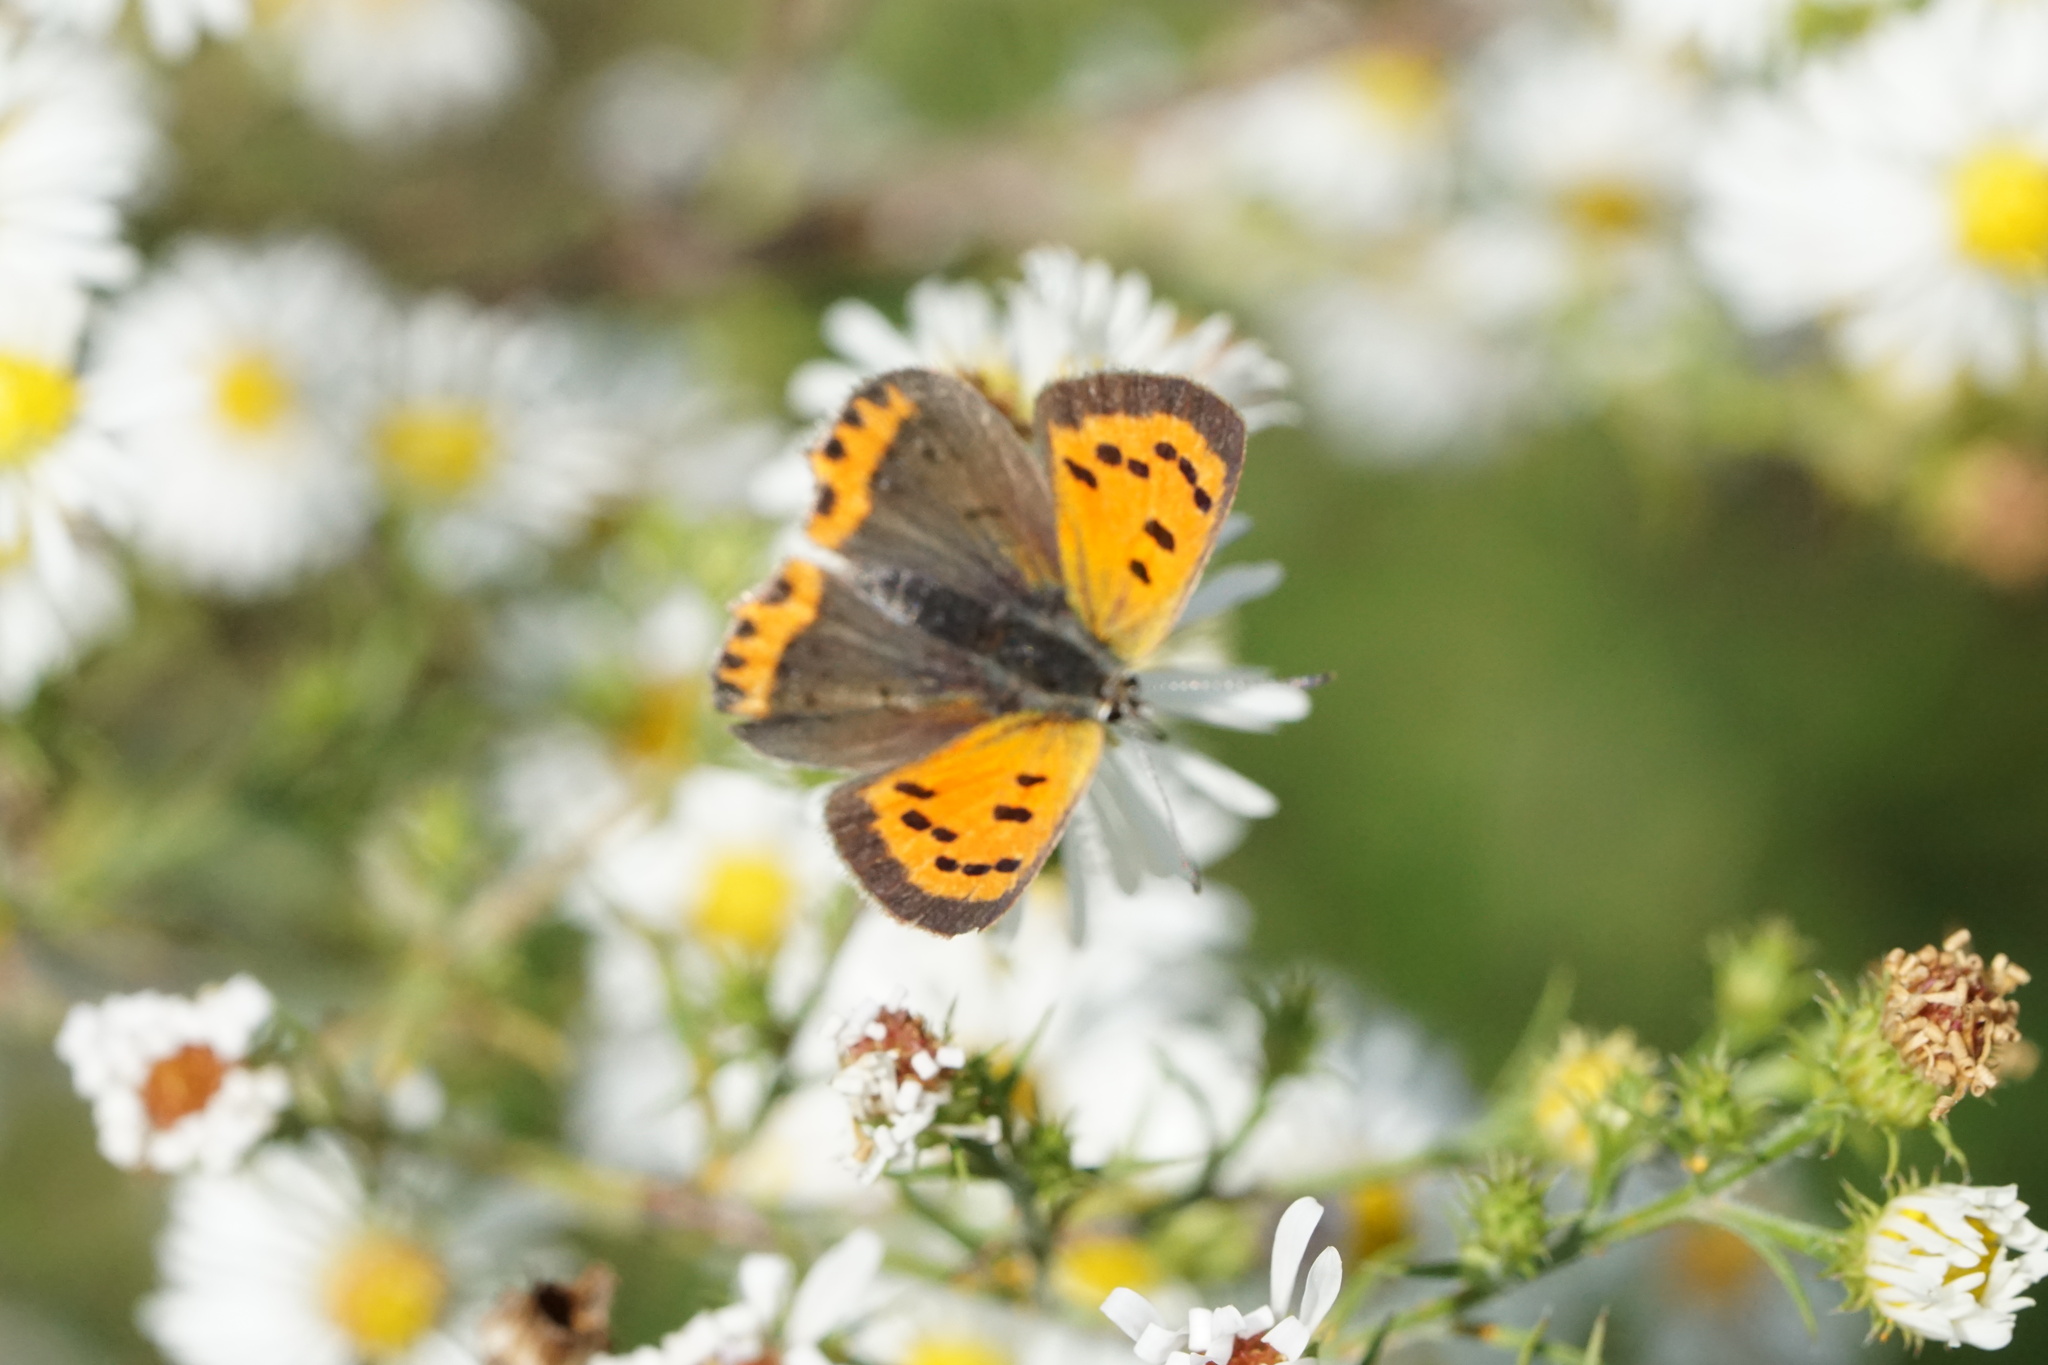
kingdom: Animalia
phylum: Arthropoda
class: Insecta
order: Lepidoptera
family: Lycaenidae
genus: Lycaena
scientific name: Lycaena hypophlaeas
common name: American copper
